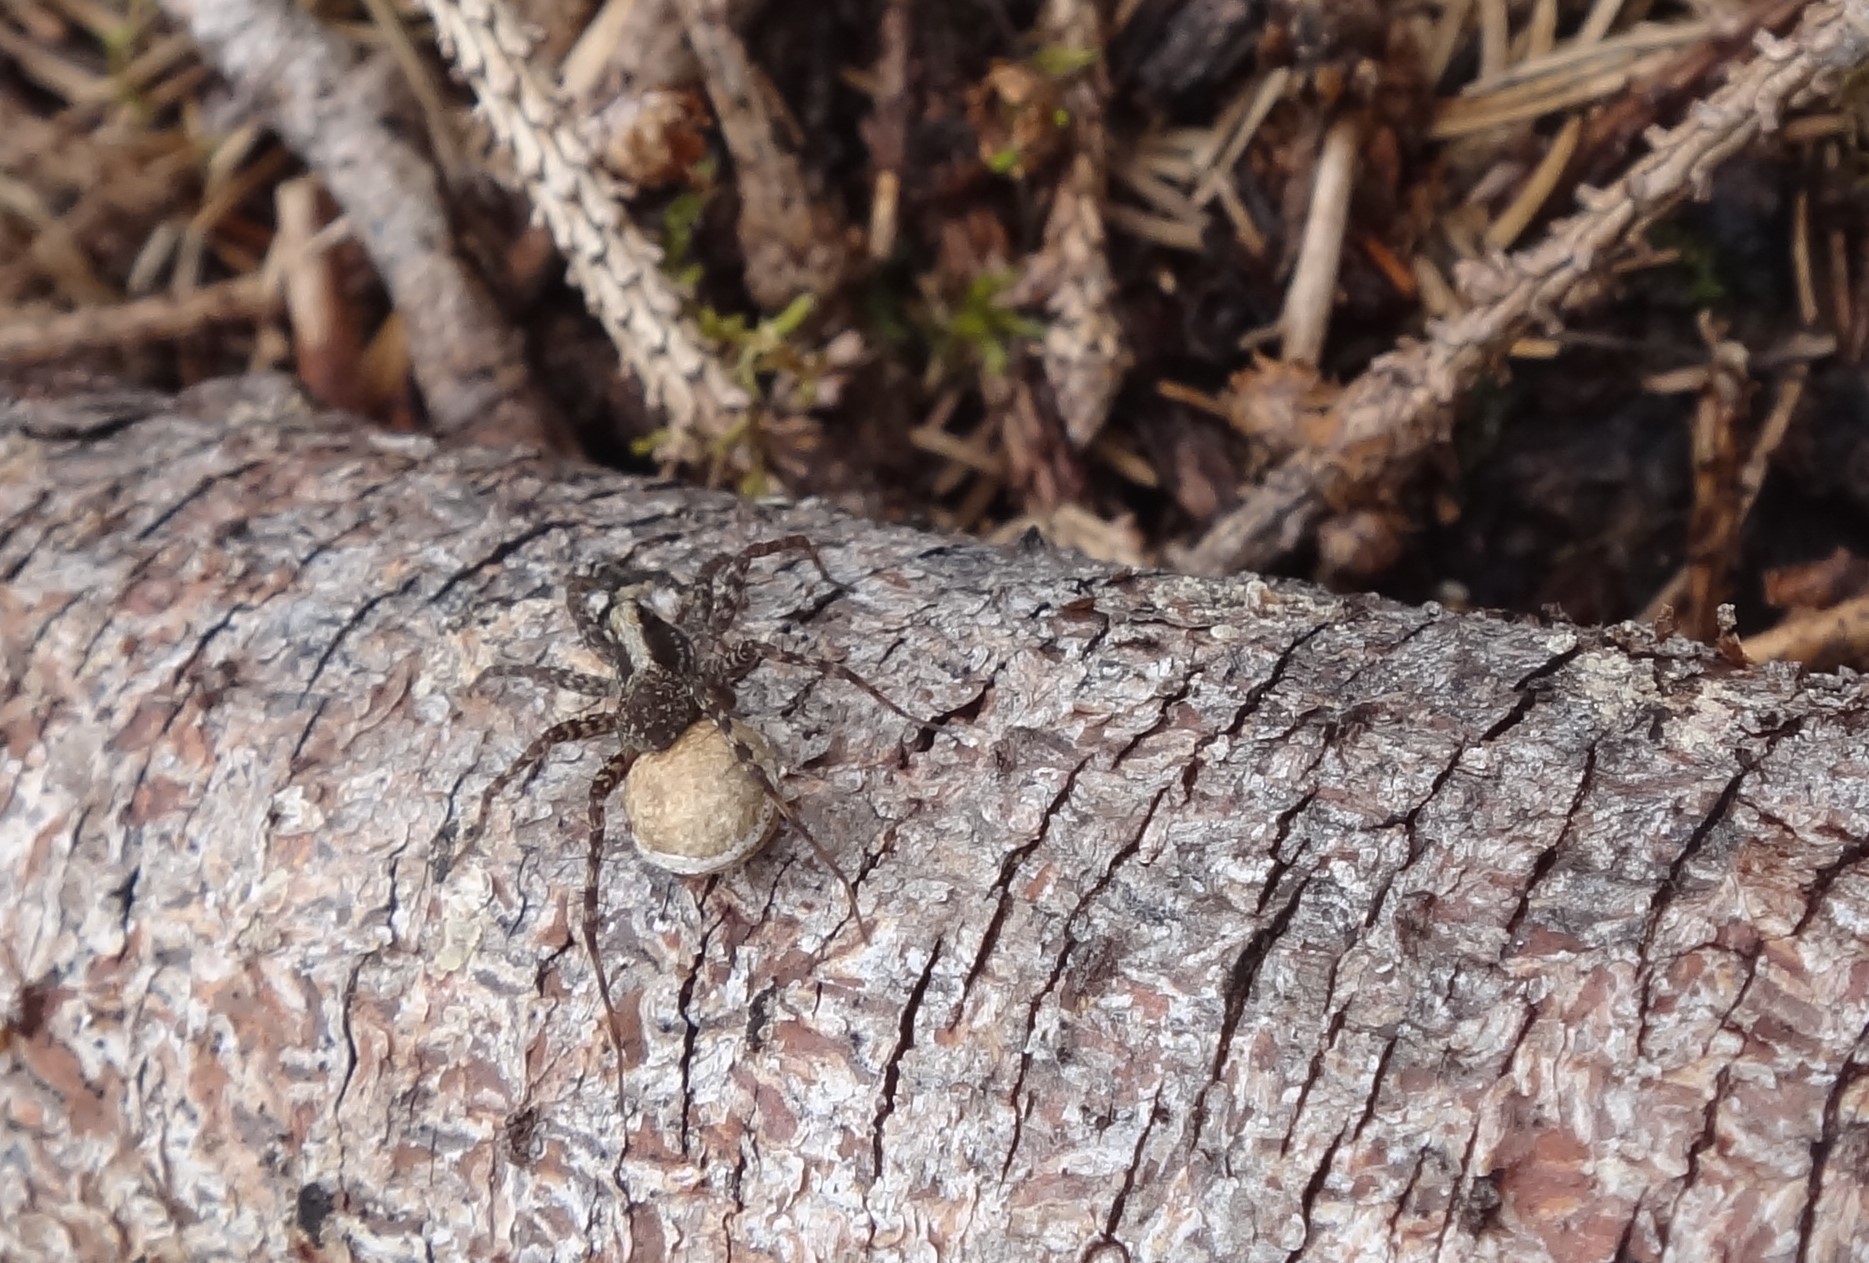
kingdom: Animalia
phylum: Arthropoda
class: Arachnida
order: Araneae
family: Lycosidae
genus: Pardosa
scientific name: Pardosa
